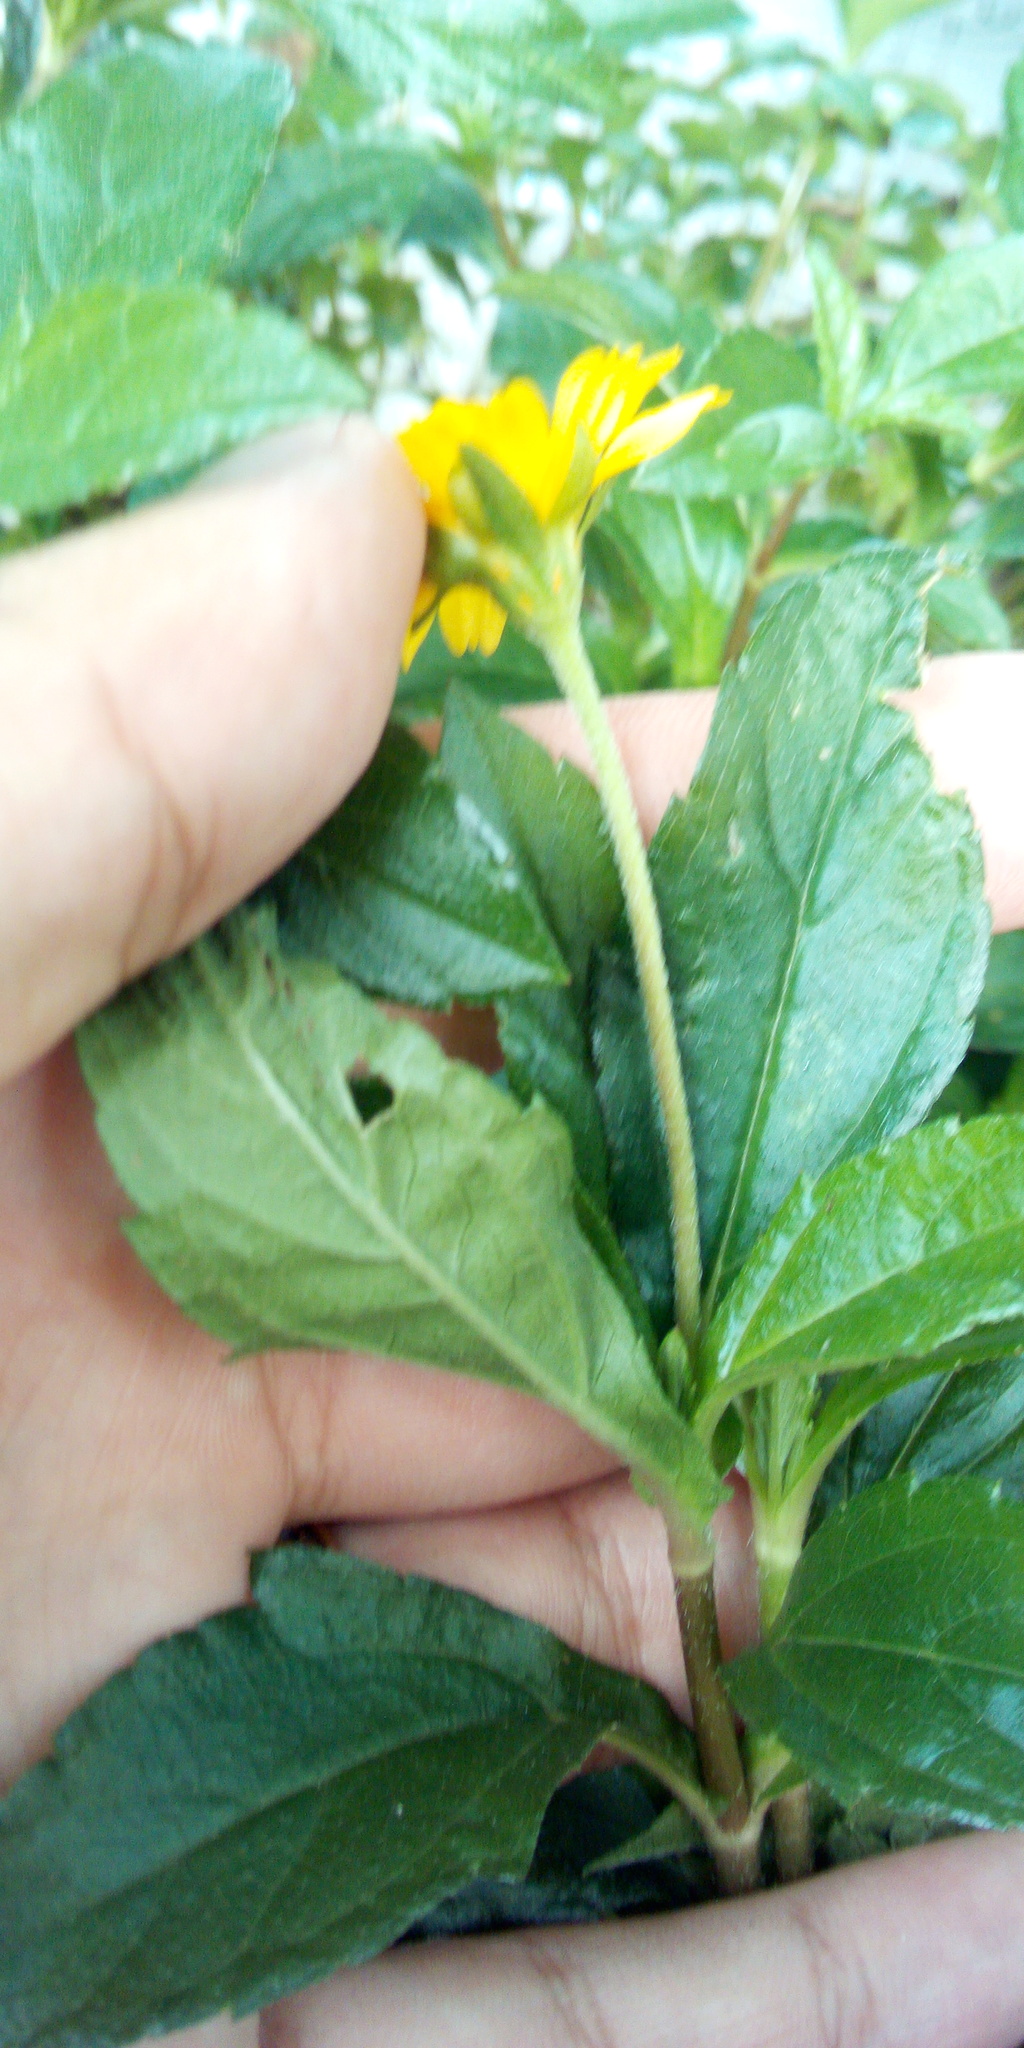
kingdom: Plantae
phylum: Tracheophyta
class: Magnoliopsida
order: Asterales
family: Asteraceae
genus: Sphagneticola
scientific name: Sphagneticola trilobata
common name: Bay biscayne creeping-oxeye
